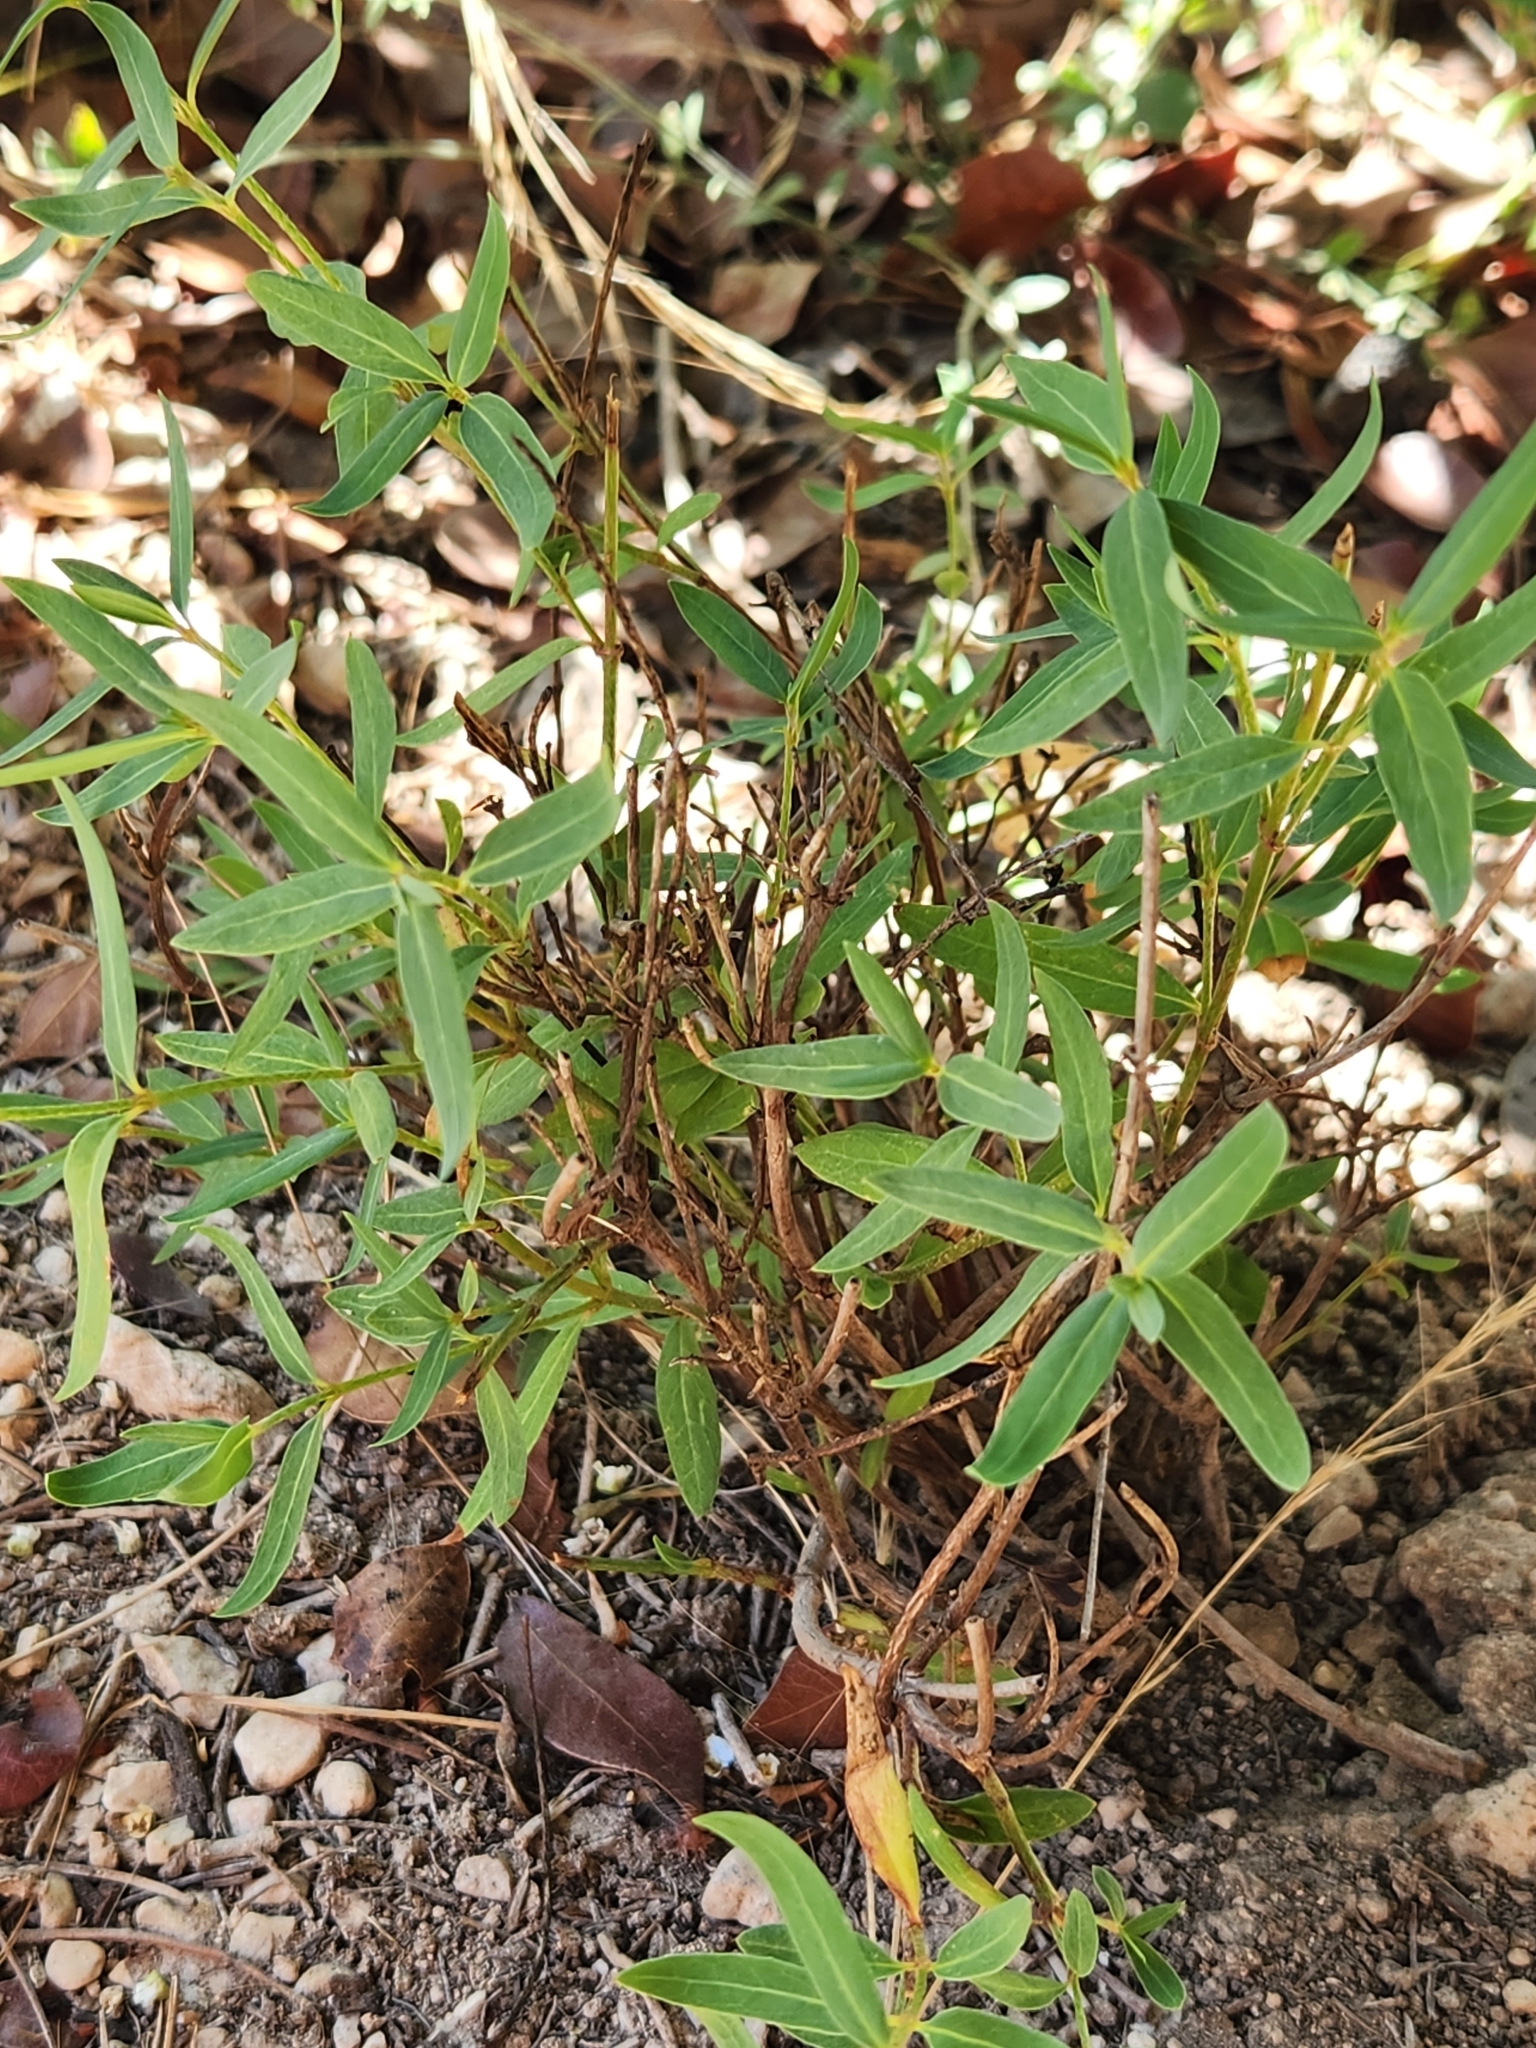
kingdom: Plantae
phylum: Tracheophyta
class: Magnoliopsida
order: Malpighiales
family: Malpighiaceae
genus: Galphimia
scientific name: Galphimia angustifolia
